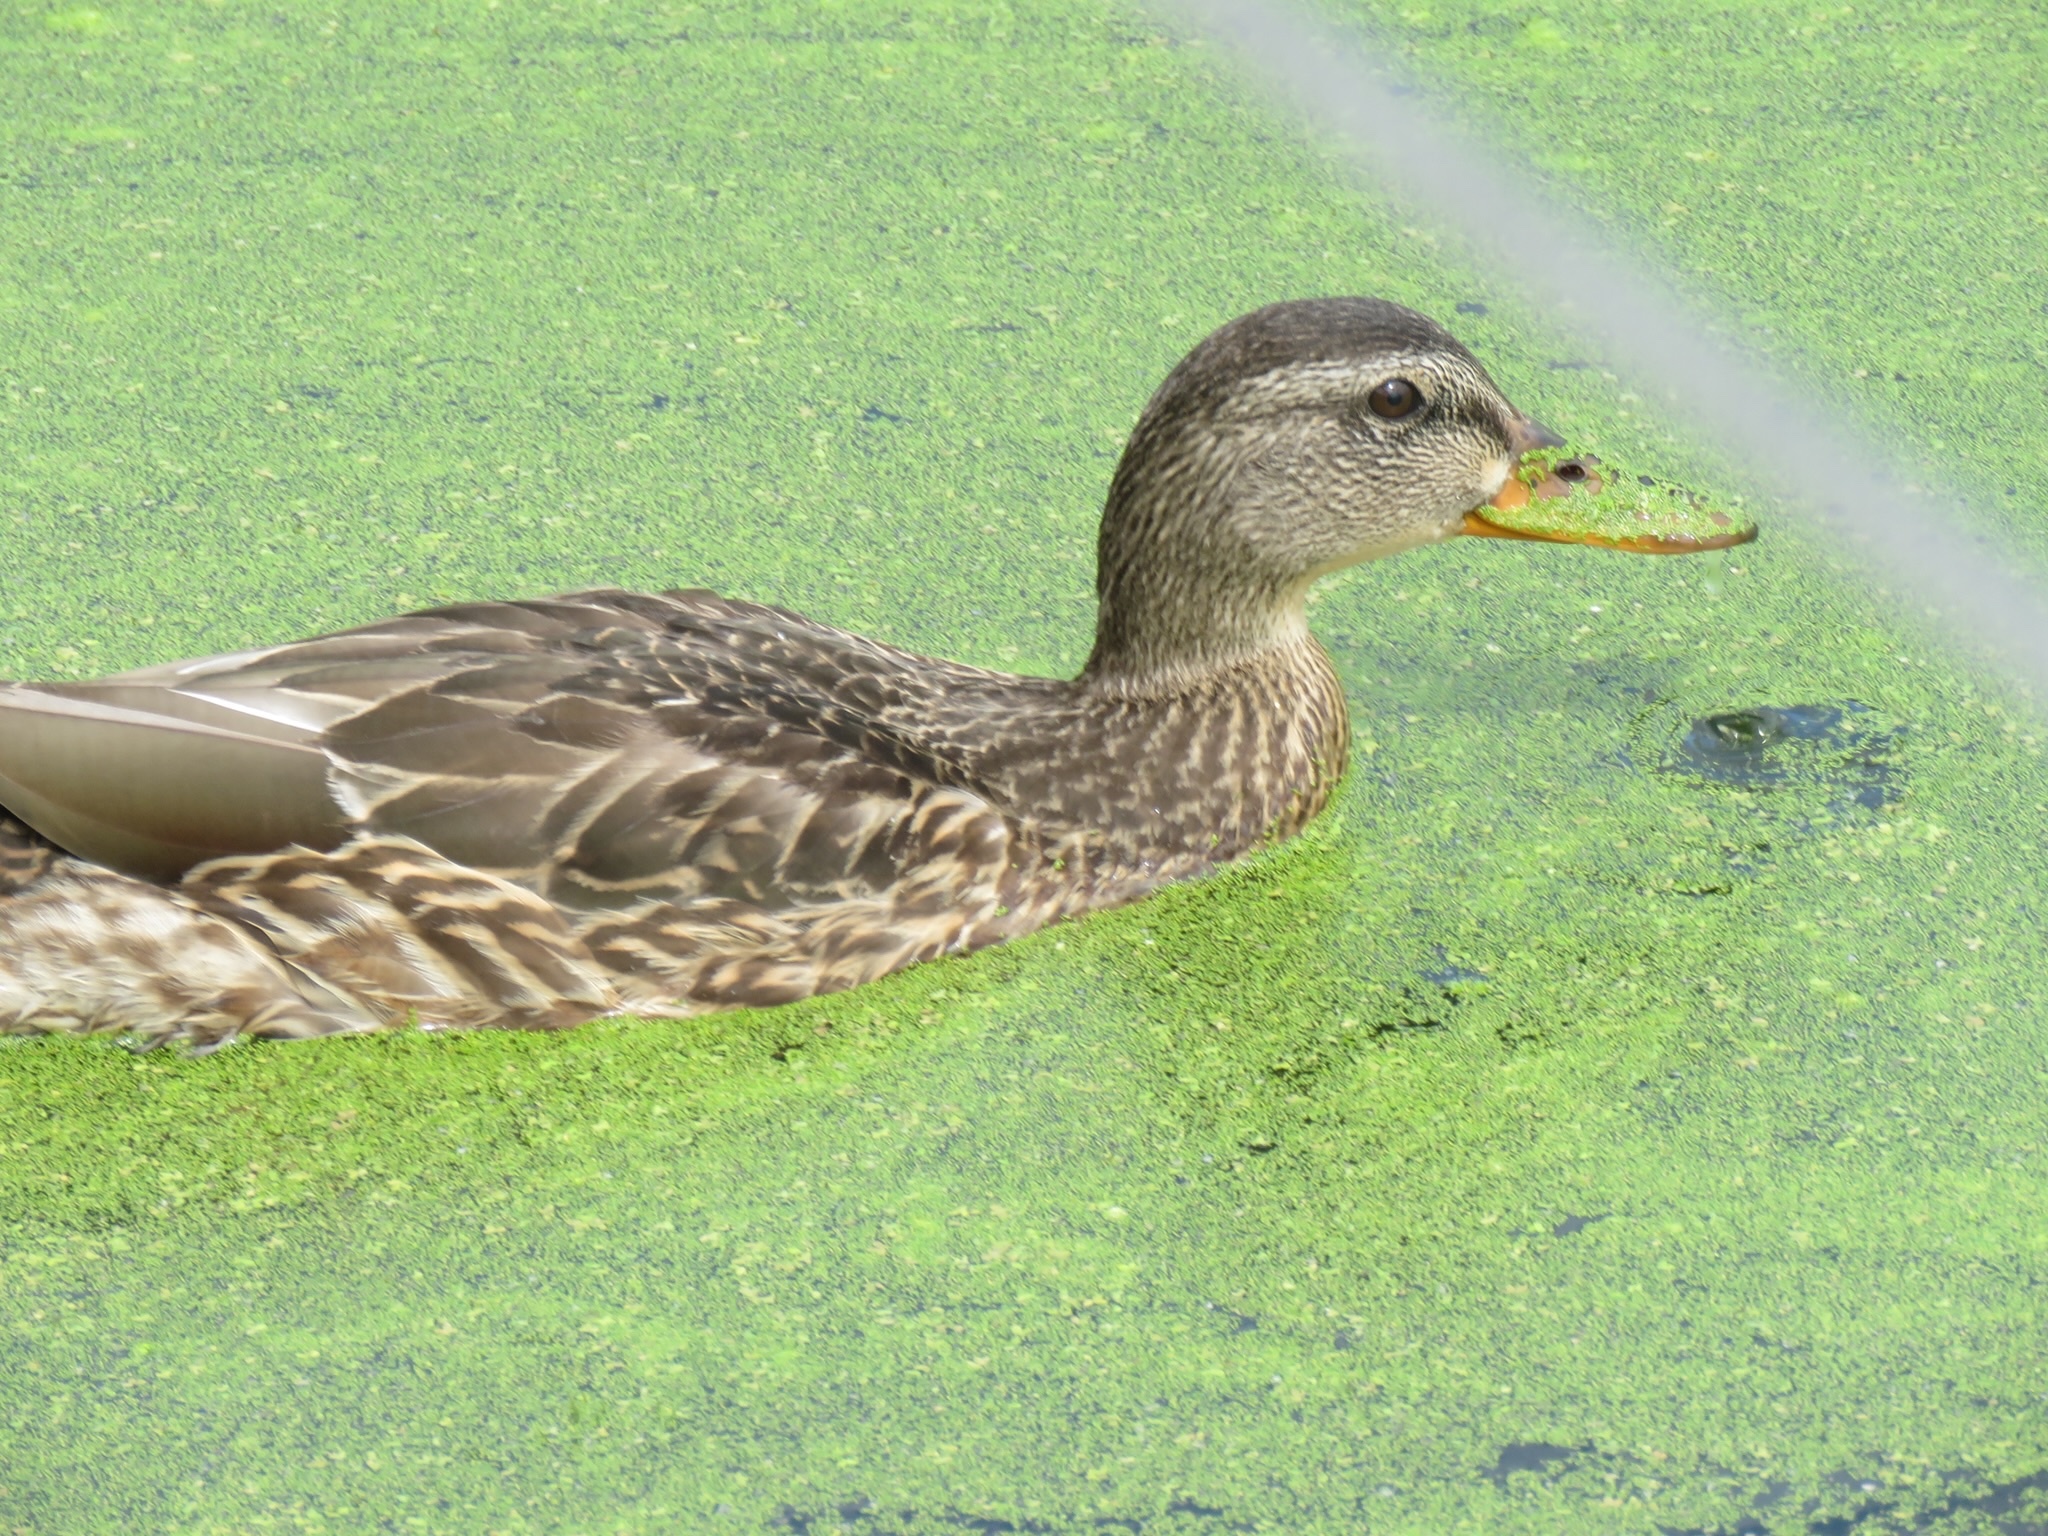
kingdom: Animalia
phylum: Chordata
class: Aves
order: Anseriformes
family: Anatidae
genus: Anas
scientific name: Anas platyrhynchos
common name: Mallard
